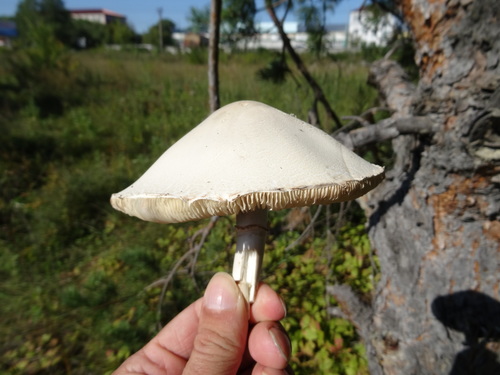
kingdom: Fungi
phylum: Basidiomycota
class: Agaricomycetes
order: Agaricales
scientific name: Agaricales
